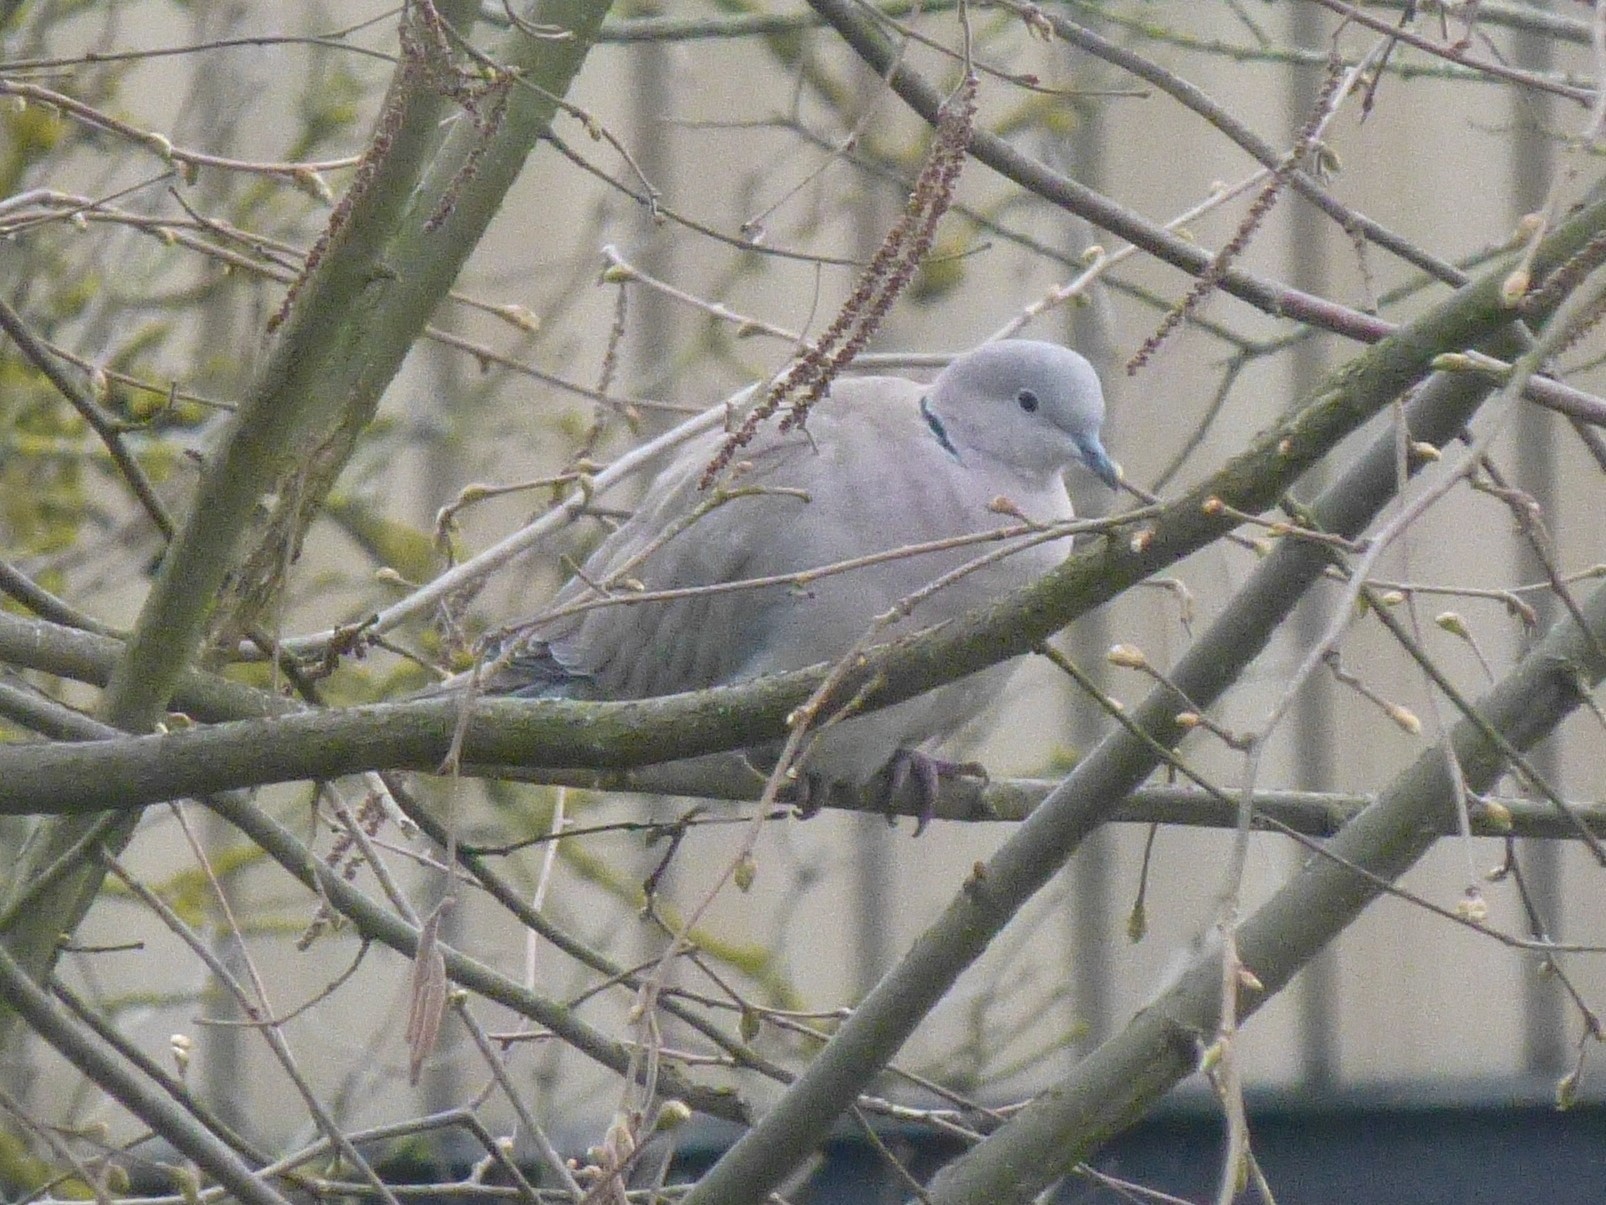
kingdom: Animalia
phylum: Chordata
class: Aves
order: Columbiformes
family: Columbidae
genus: Streptopelia
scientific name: Streptopelia decaocto
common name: Eurasian collared dove
